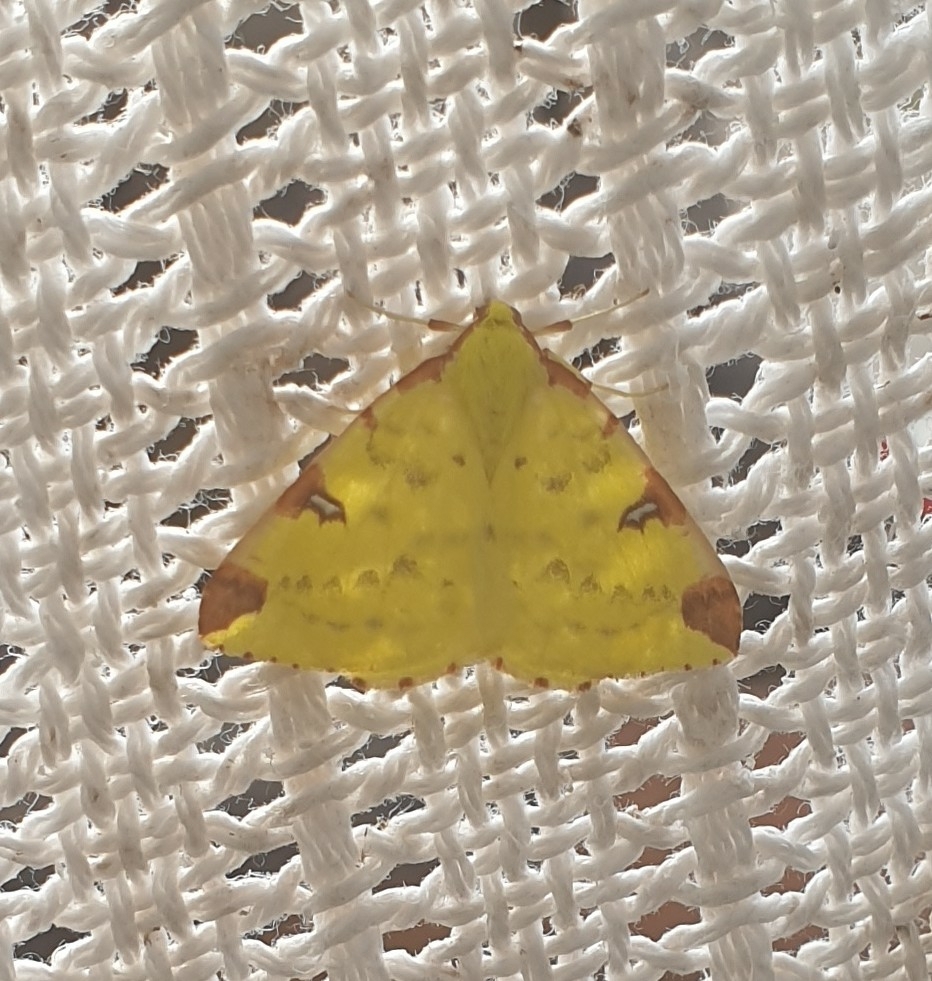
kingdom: Animalia
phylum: Arthropoda
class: Insecta
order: Lepidoptera
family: Geometridae
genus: Opisthograptis
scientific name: Opisthograptis luteolata
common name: Brimstone moth
